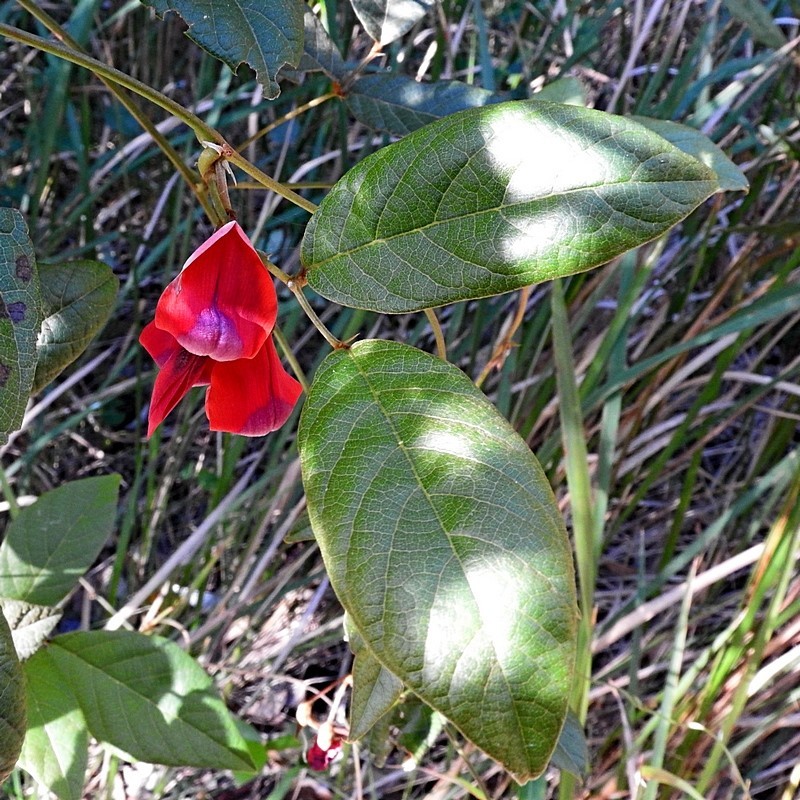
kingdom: Plantae
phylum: Tracheophyta
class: Magnoliopsida
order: Fabales
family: Fabaceae
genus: Kennedia
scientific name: Kennedia rubicunda
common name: Red kennedy-pea
